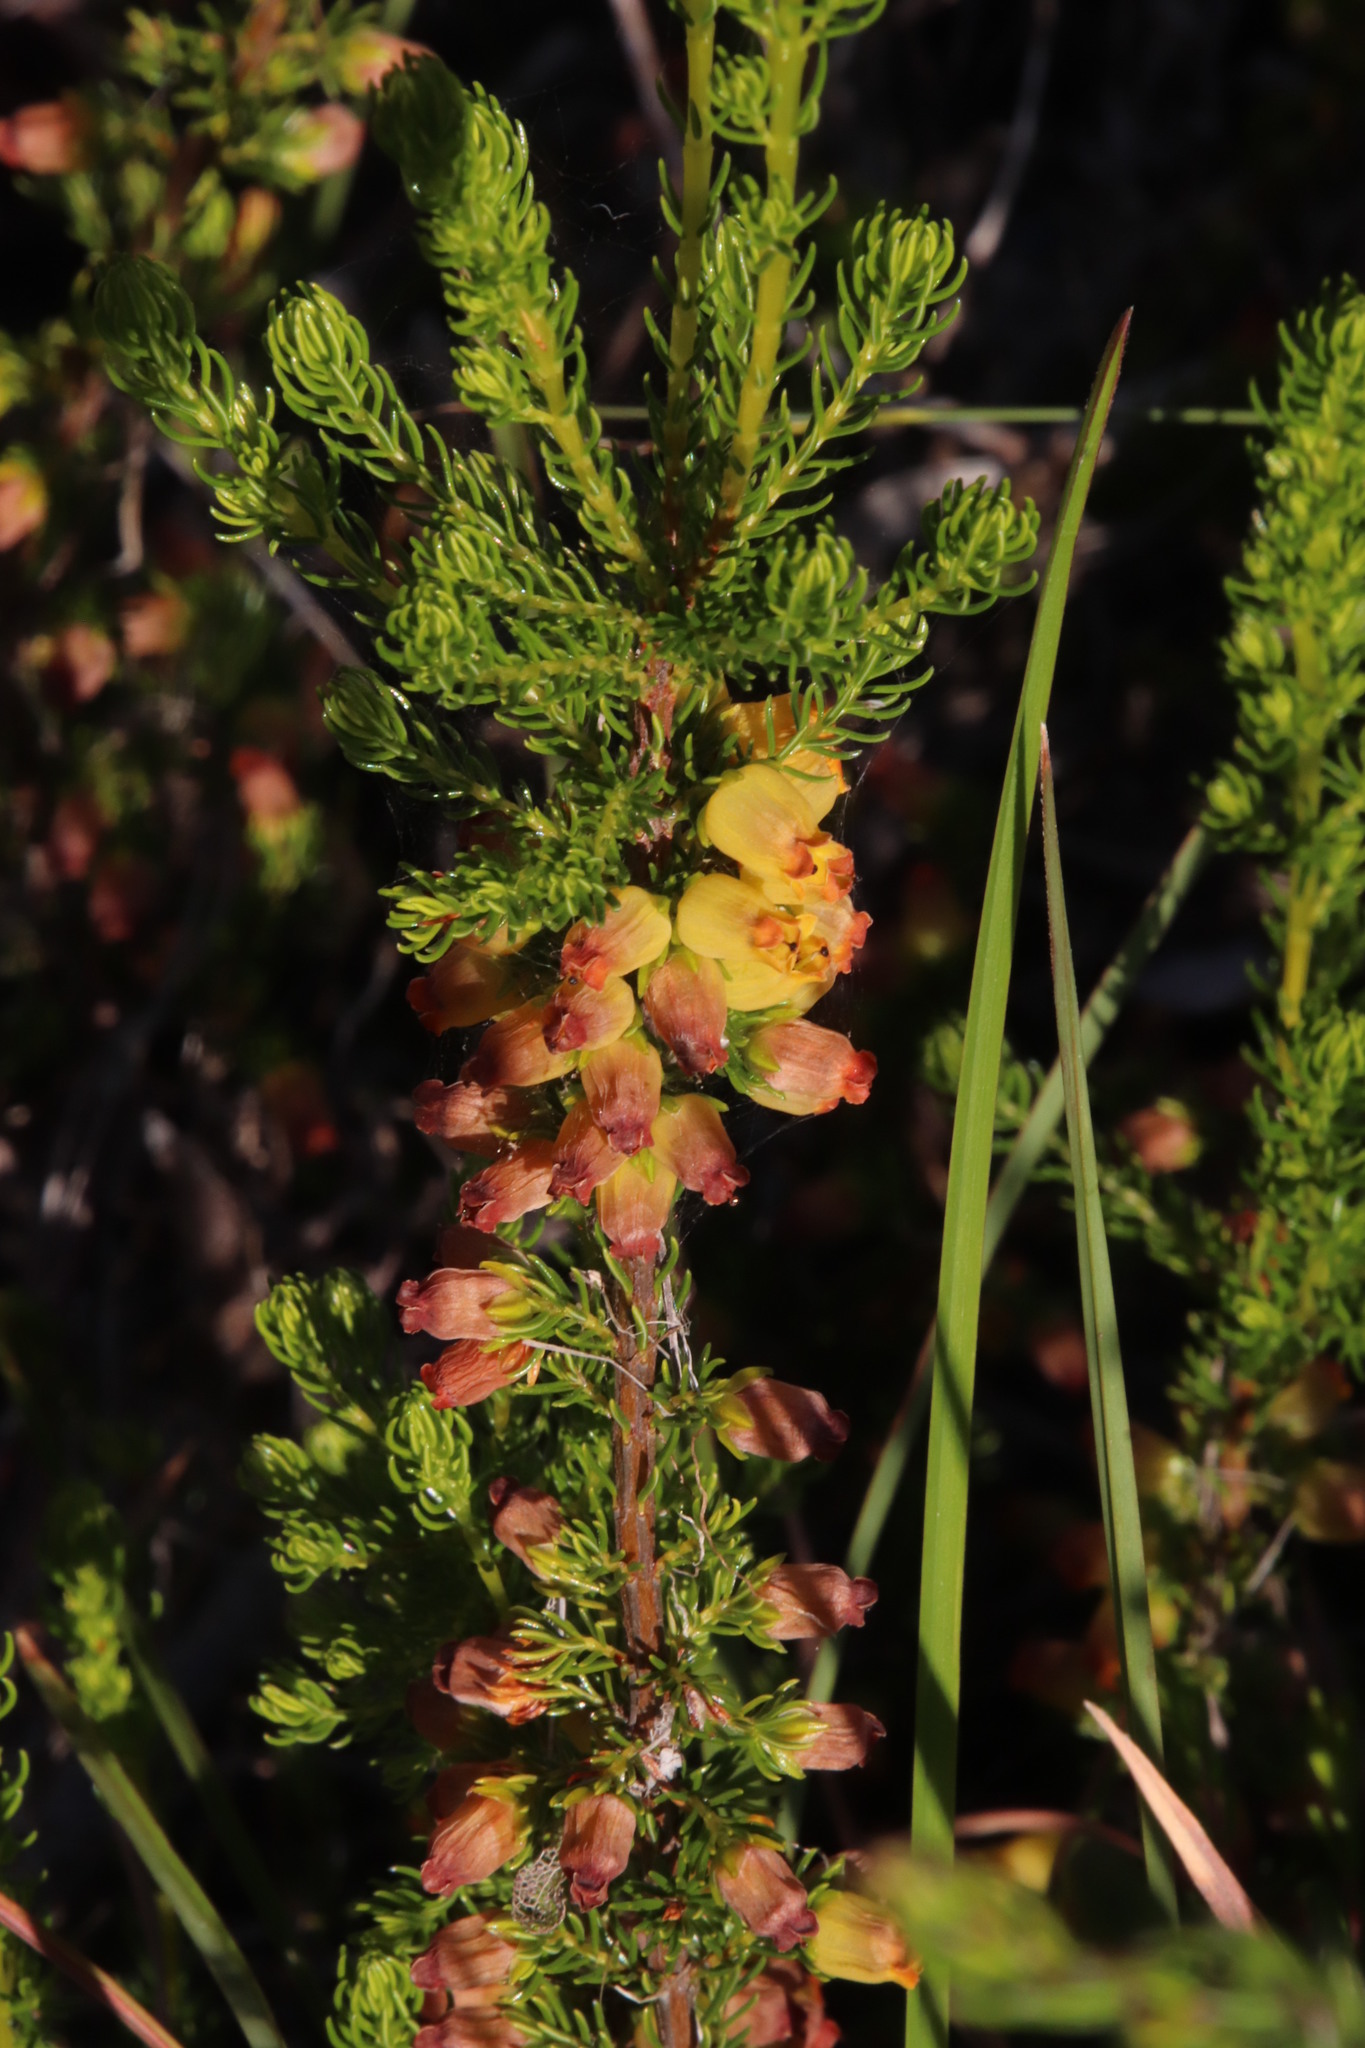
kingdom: Plantae
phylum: Tracheophyta
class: Magnoliopsida
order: Ericales
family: Ericaceae
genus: Erica
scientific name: Erica blandfordia
